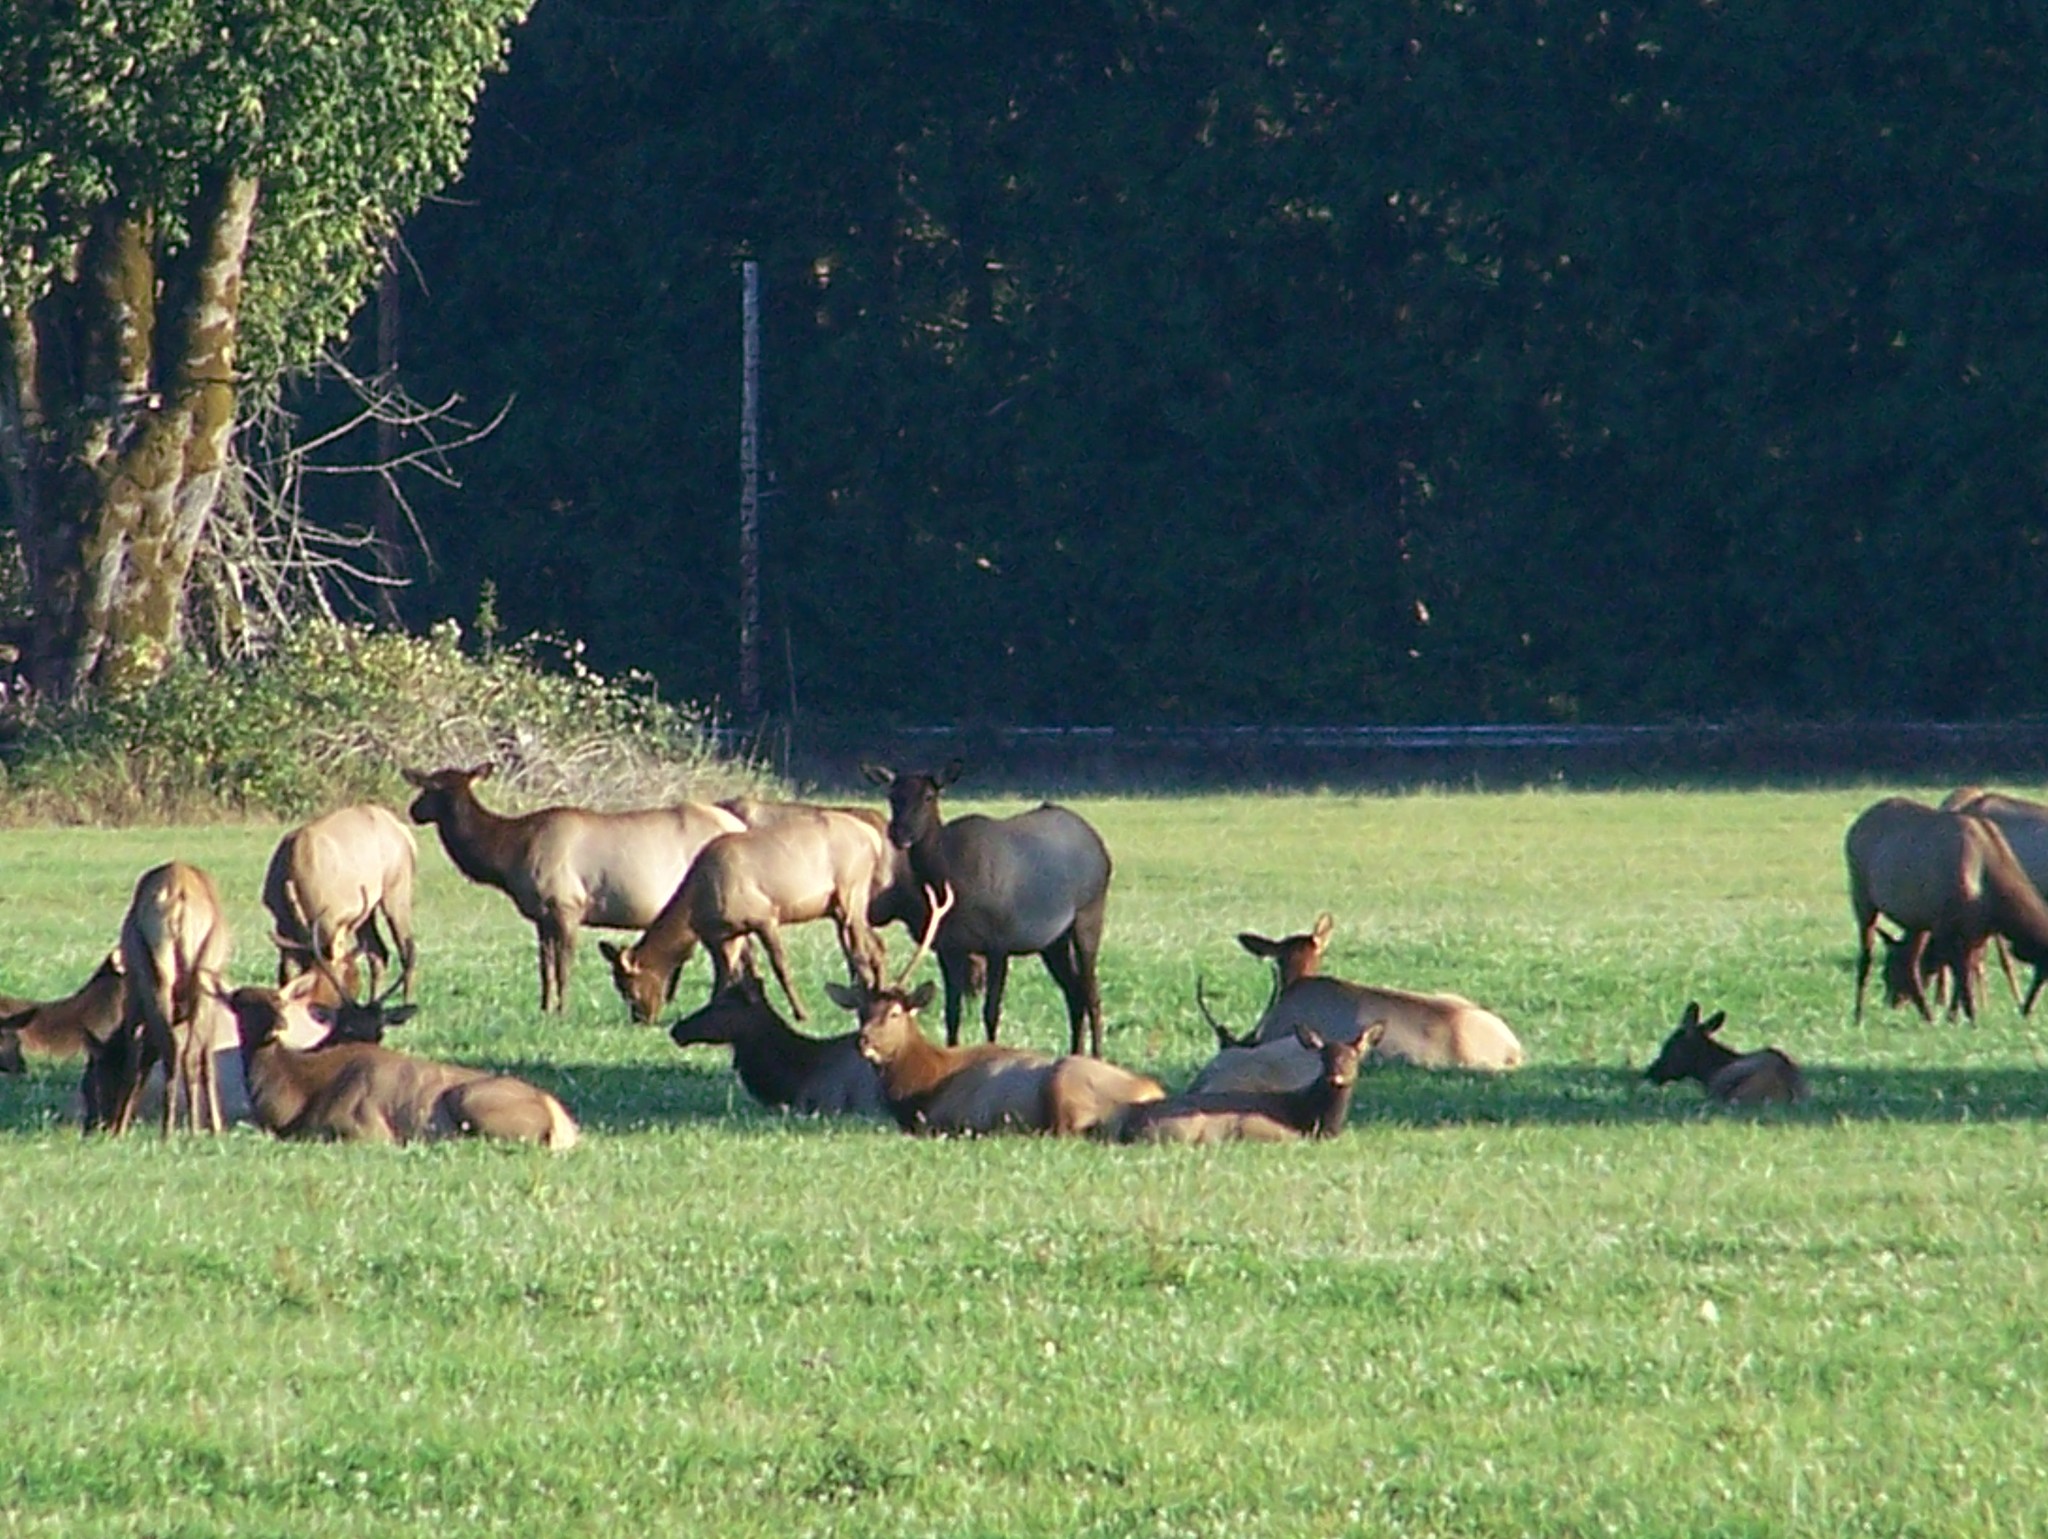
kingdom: Animalia
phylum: Chordata
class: Mammalia
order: Artiodactyla
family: Cervidae
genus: Cervus
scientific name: Cervus elaphus
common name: Red deer
